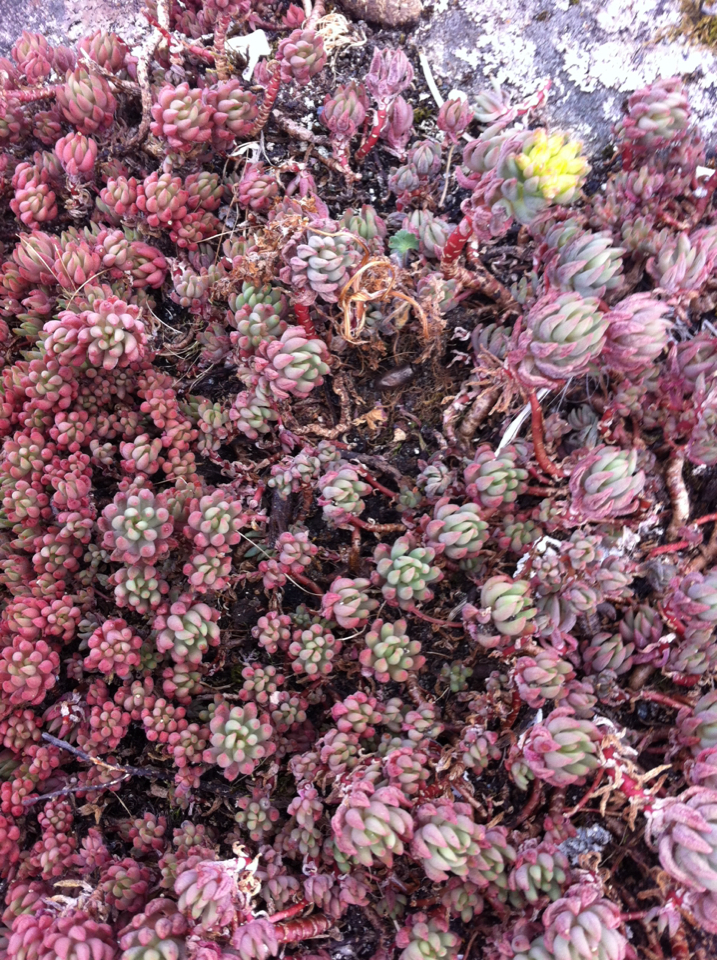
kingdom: Plantae
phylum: Tracheophyta
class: Magnoliopsida
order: Saxifragales
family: Crassulaceae
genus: Sedum
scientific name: Sedum lanceolatum
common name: Common stonecrop
